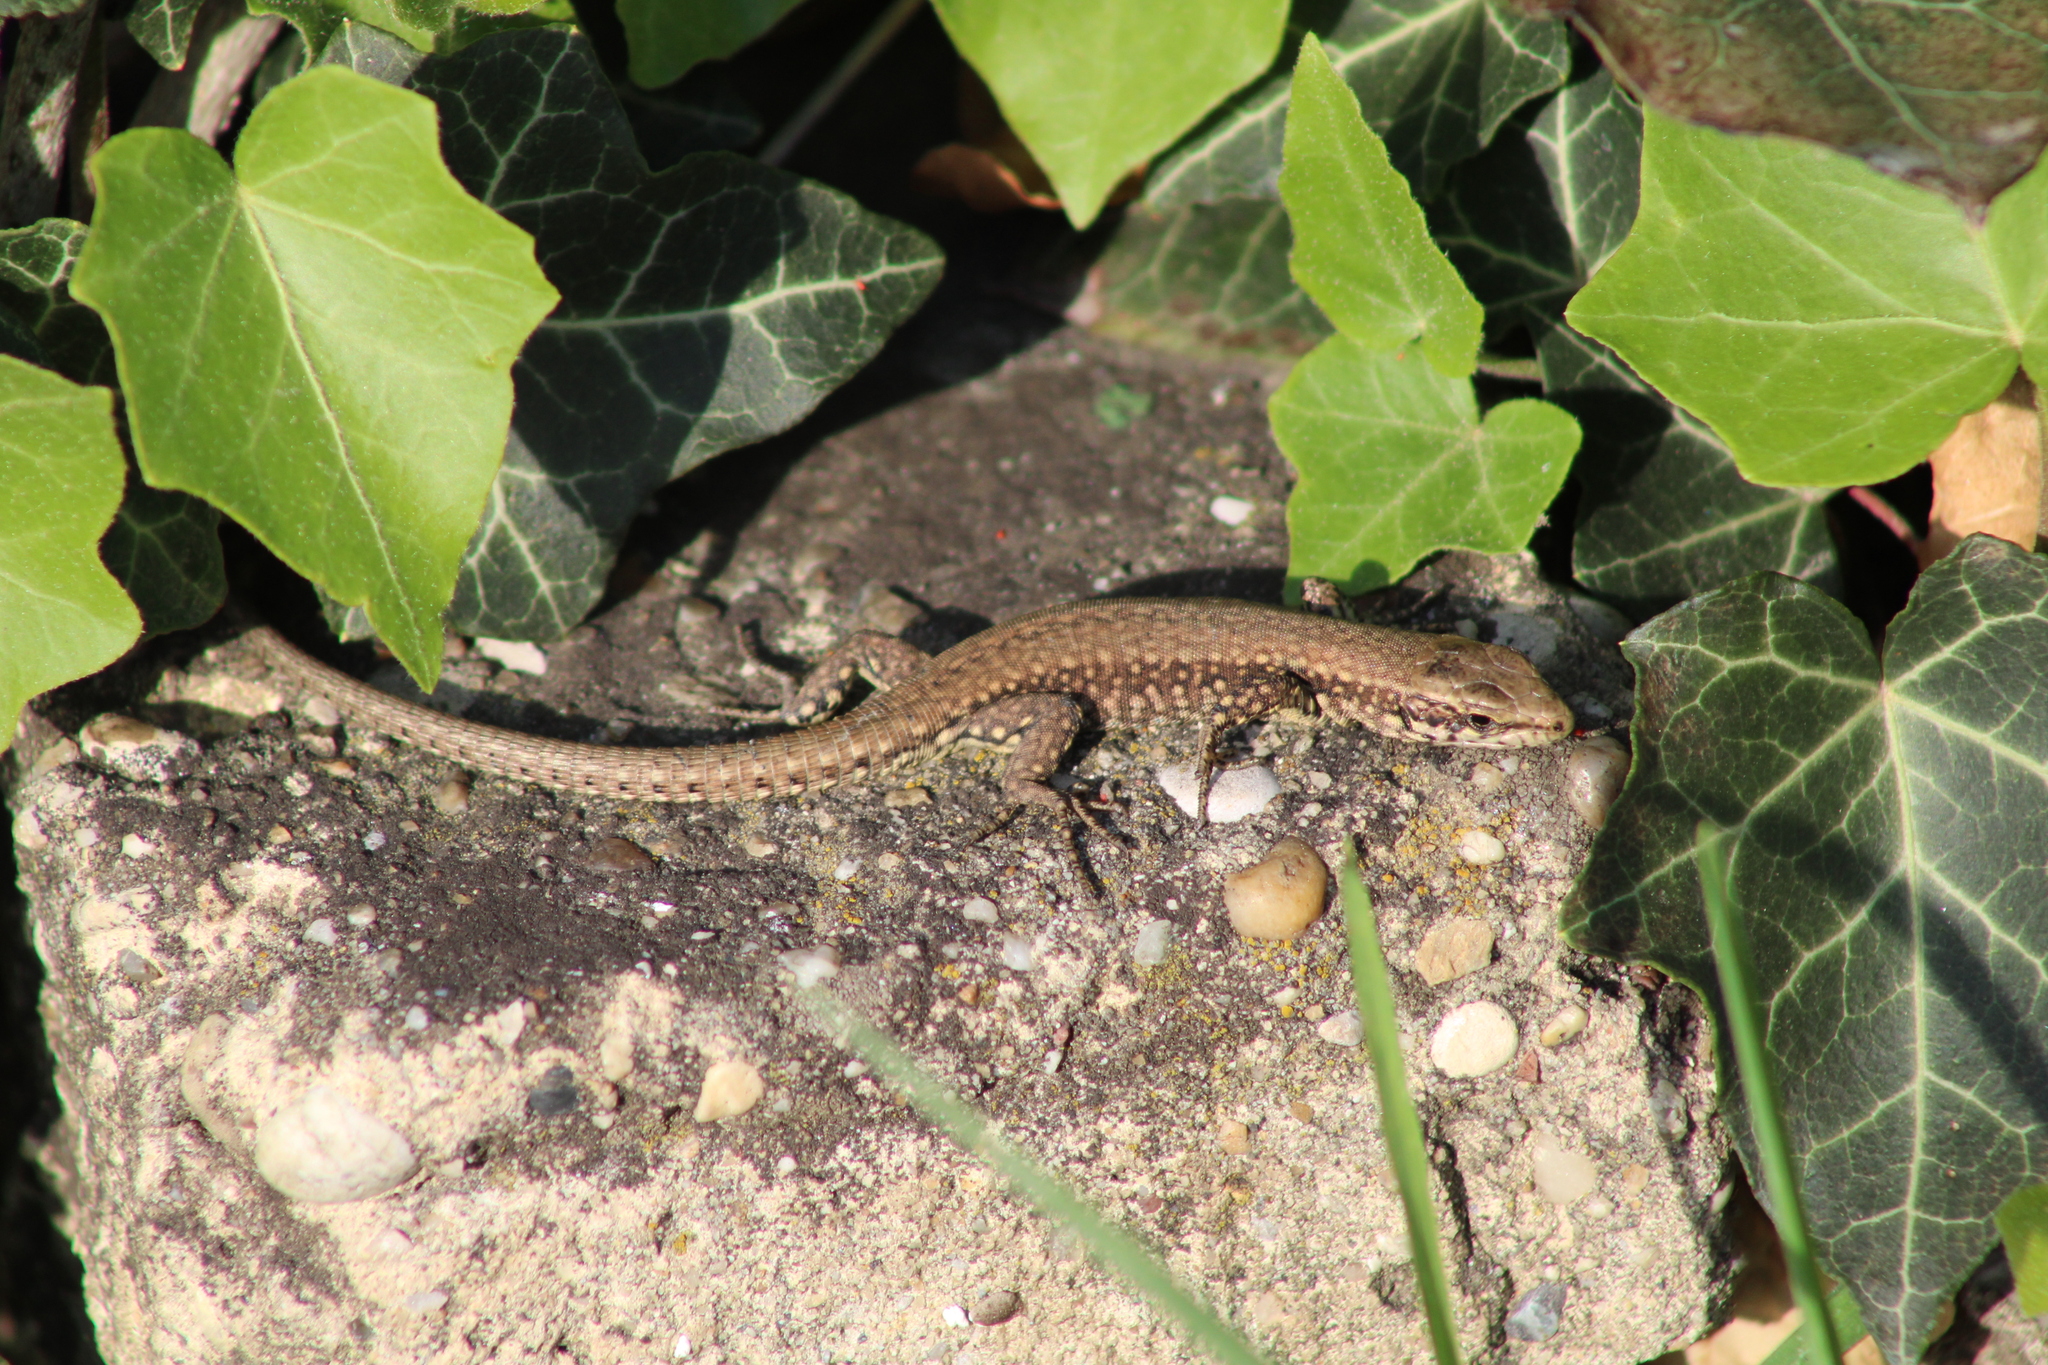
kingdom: Animalia
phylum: Chordata
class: Squamata
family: Lacertidae
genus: Podarcis
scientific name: Podarcis muralis
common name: Common wall lizard
